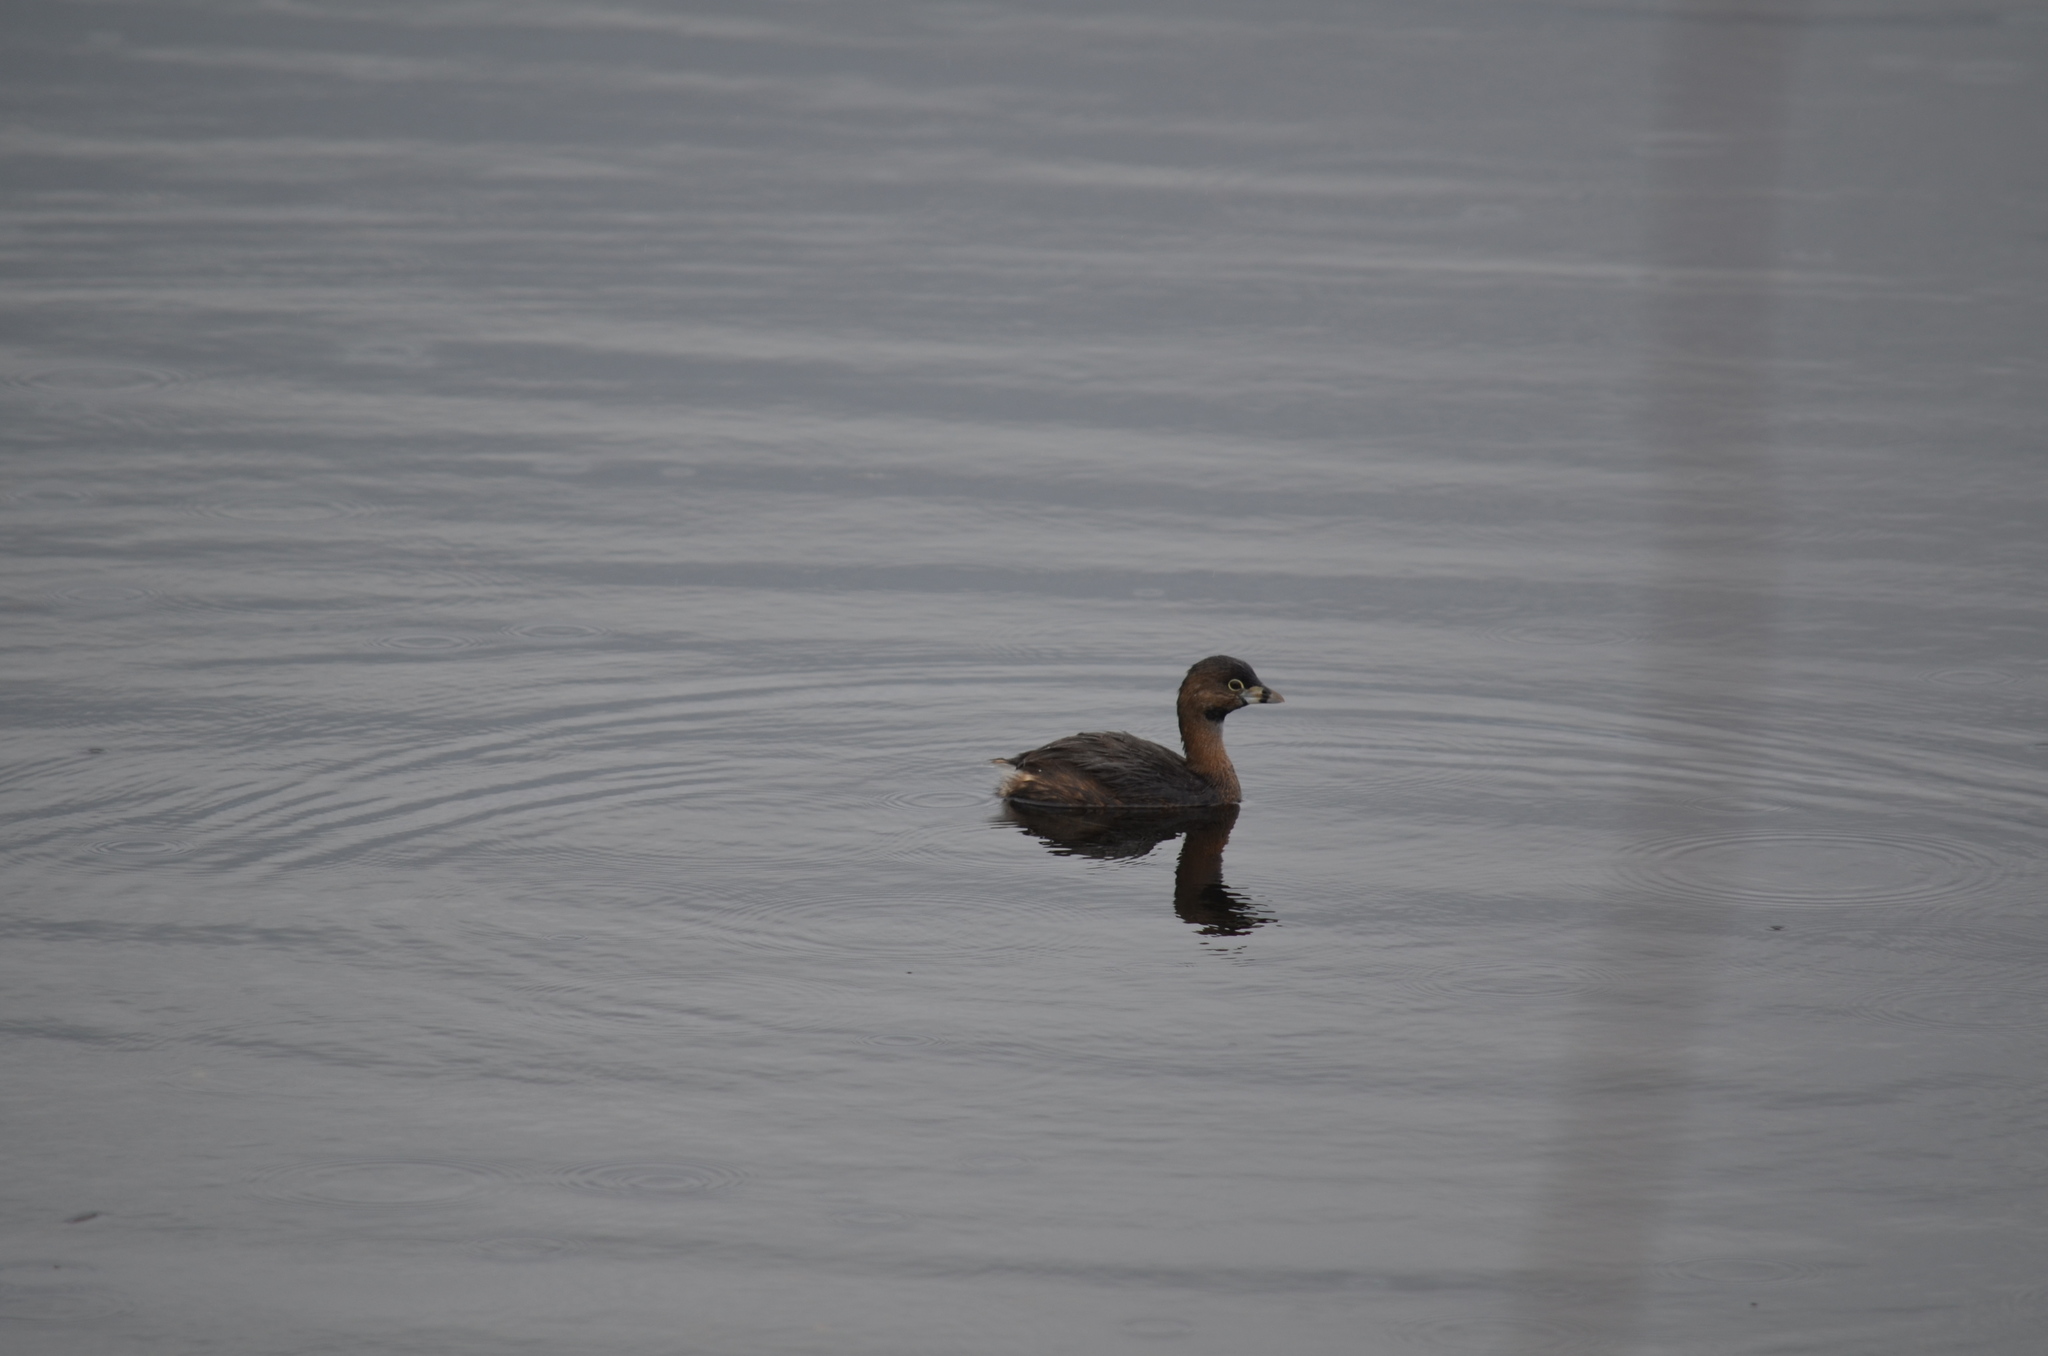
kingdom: Animalia
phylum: Chordata
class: Aves
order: Podicipediformes
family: Podicipedidae
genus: Podilymbus
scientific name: Podilymbus podiceps
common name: Pied-billed grebe
